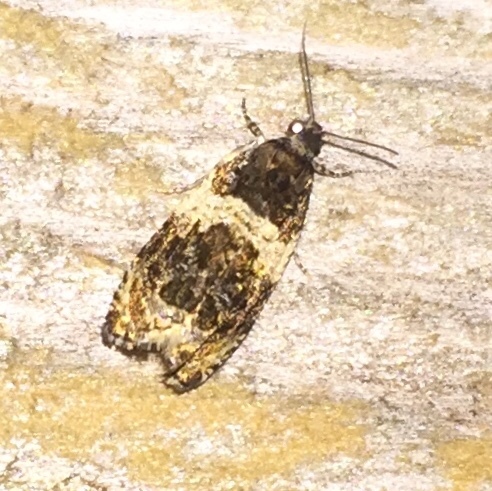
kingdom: Animalia
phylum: Arthropoda
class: Insecta
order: Lepidoptera
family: Tortricidae
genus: Olethreutes
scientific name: Olethreutes fasciatana
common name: Banded olethreutes moth
